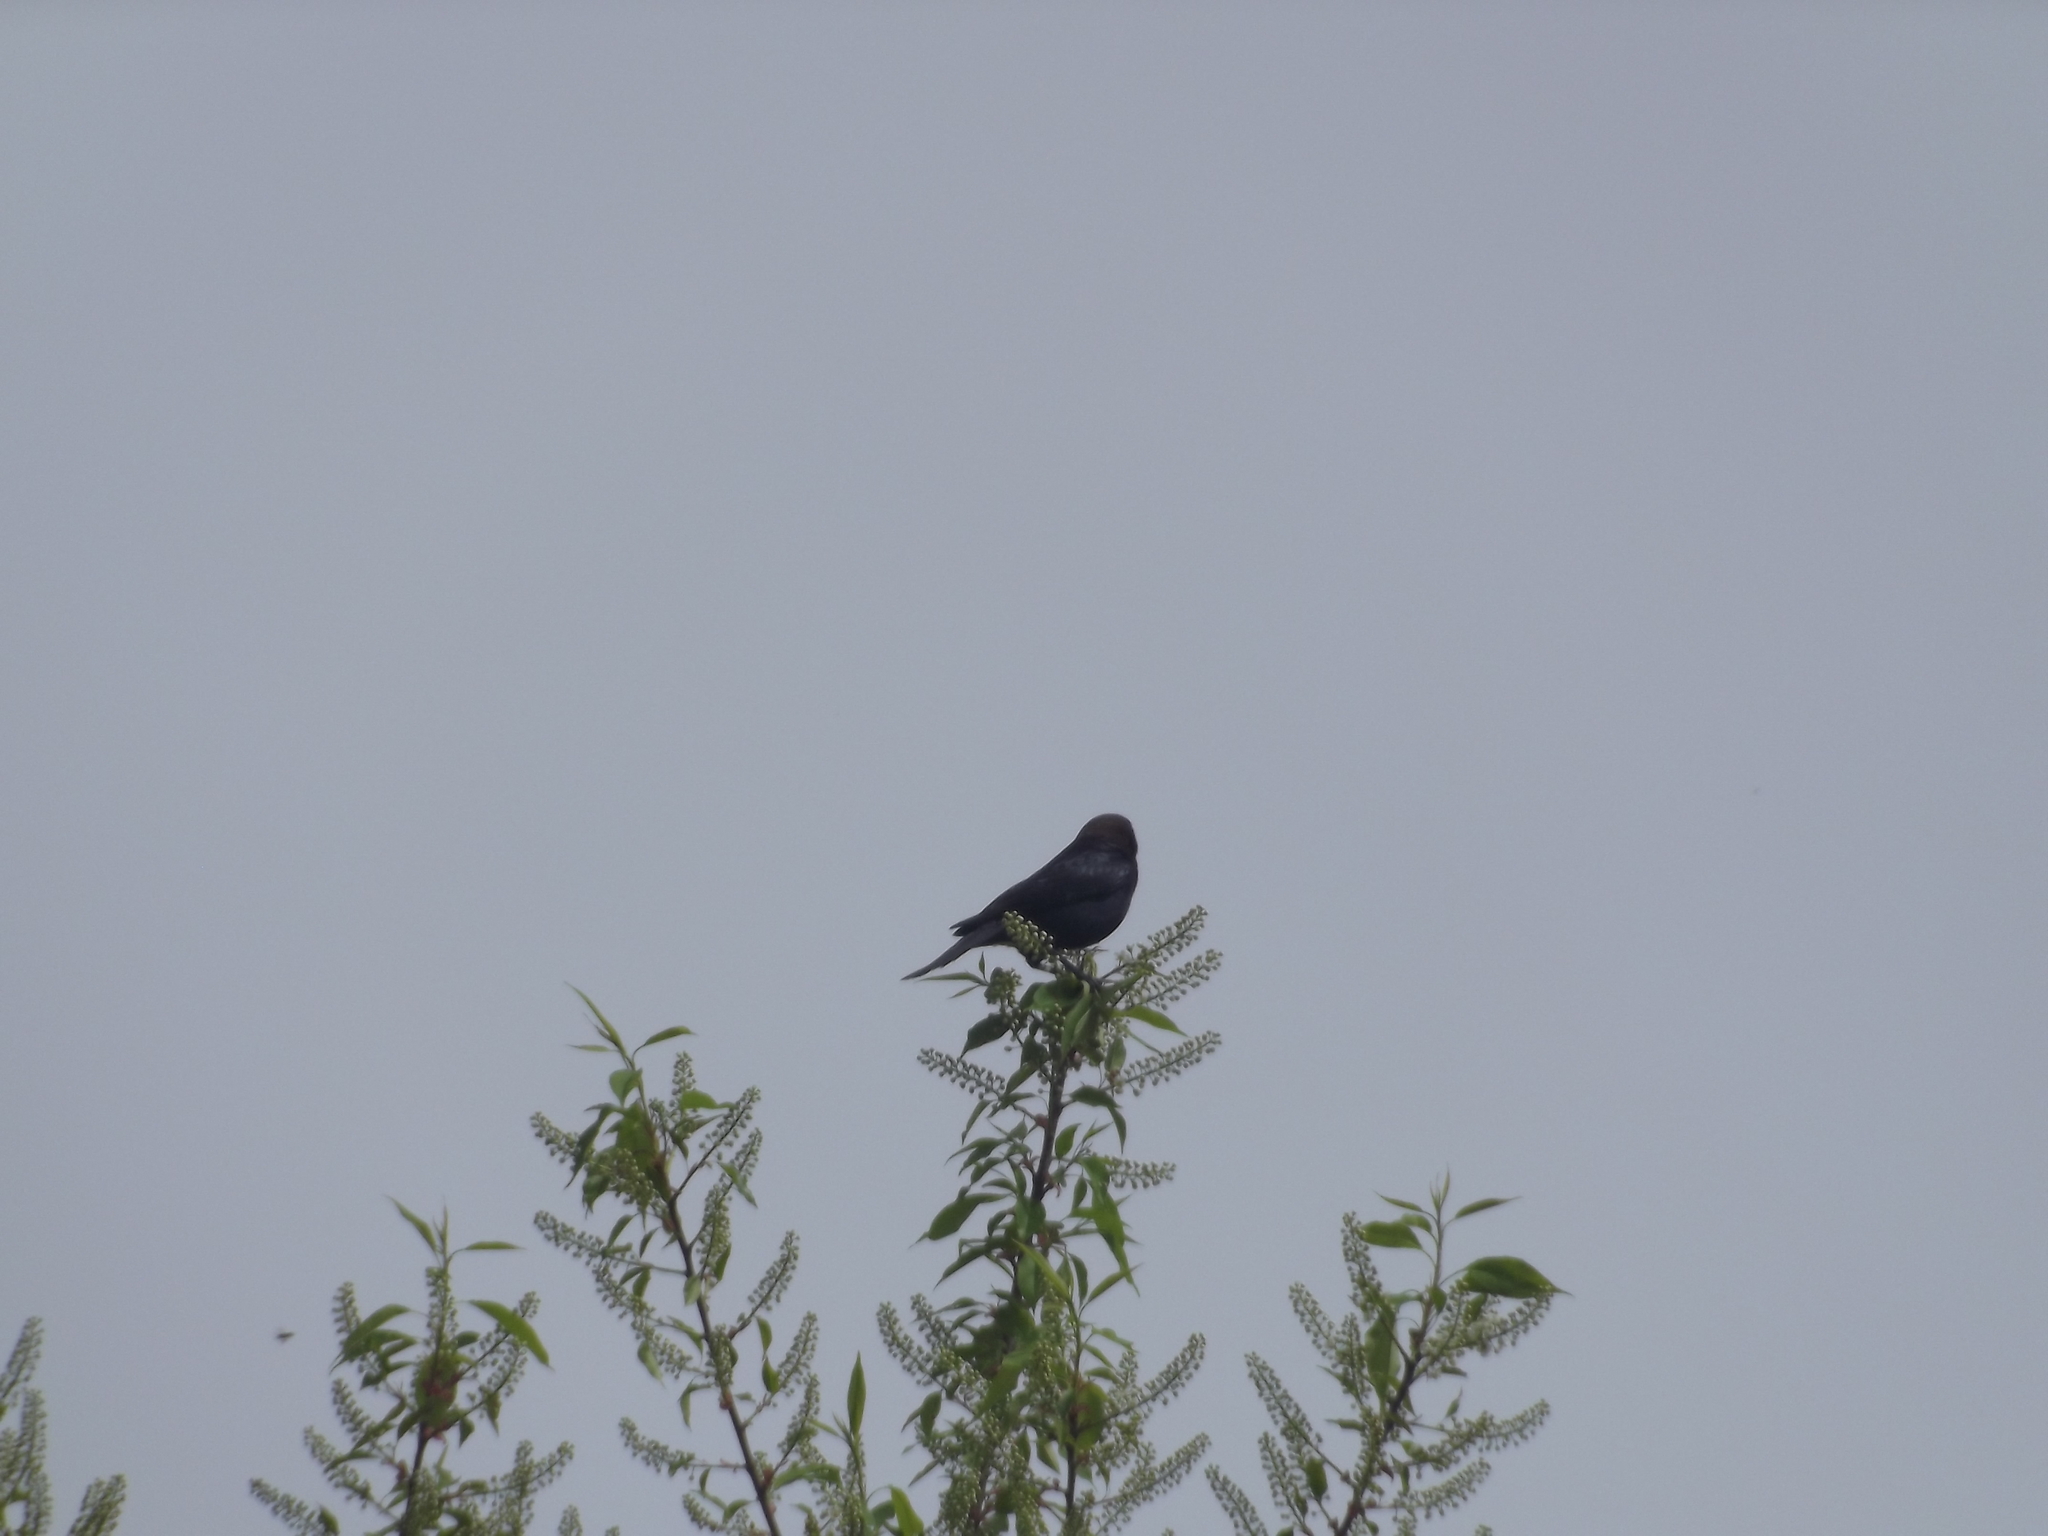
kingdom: Animalia
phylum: Chordata
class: Aves
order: Passeriformes
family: Icteridae
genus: Molothrus
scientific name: Molothrus ater
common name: Brown-headed cowbird
